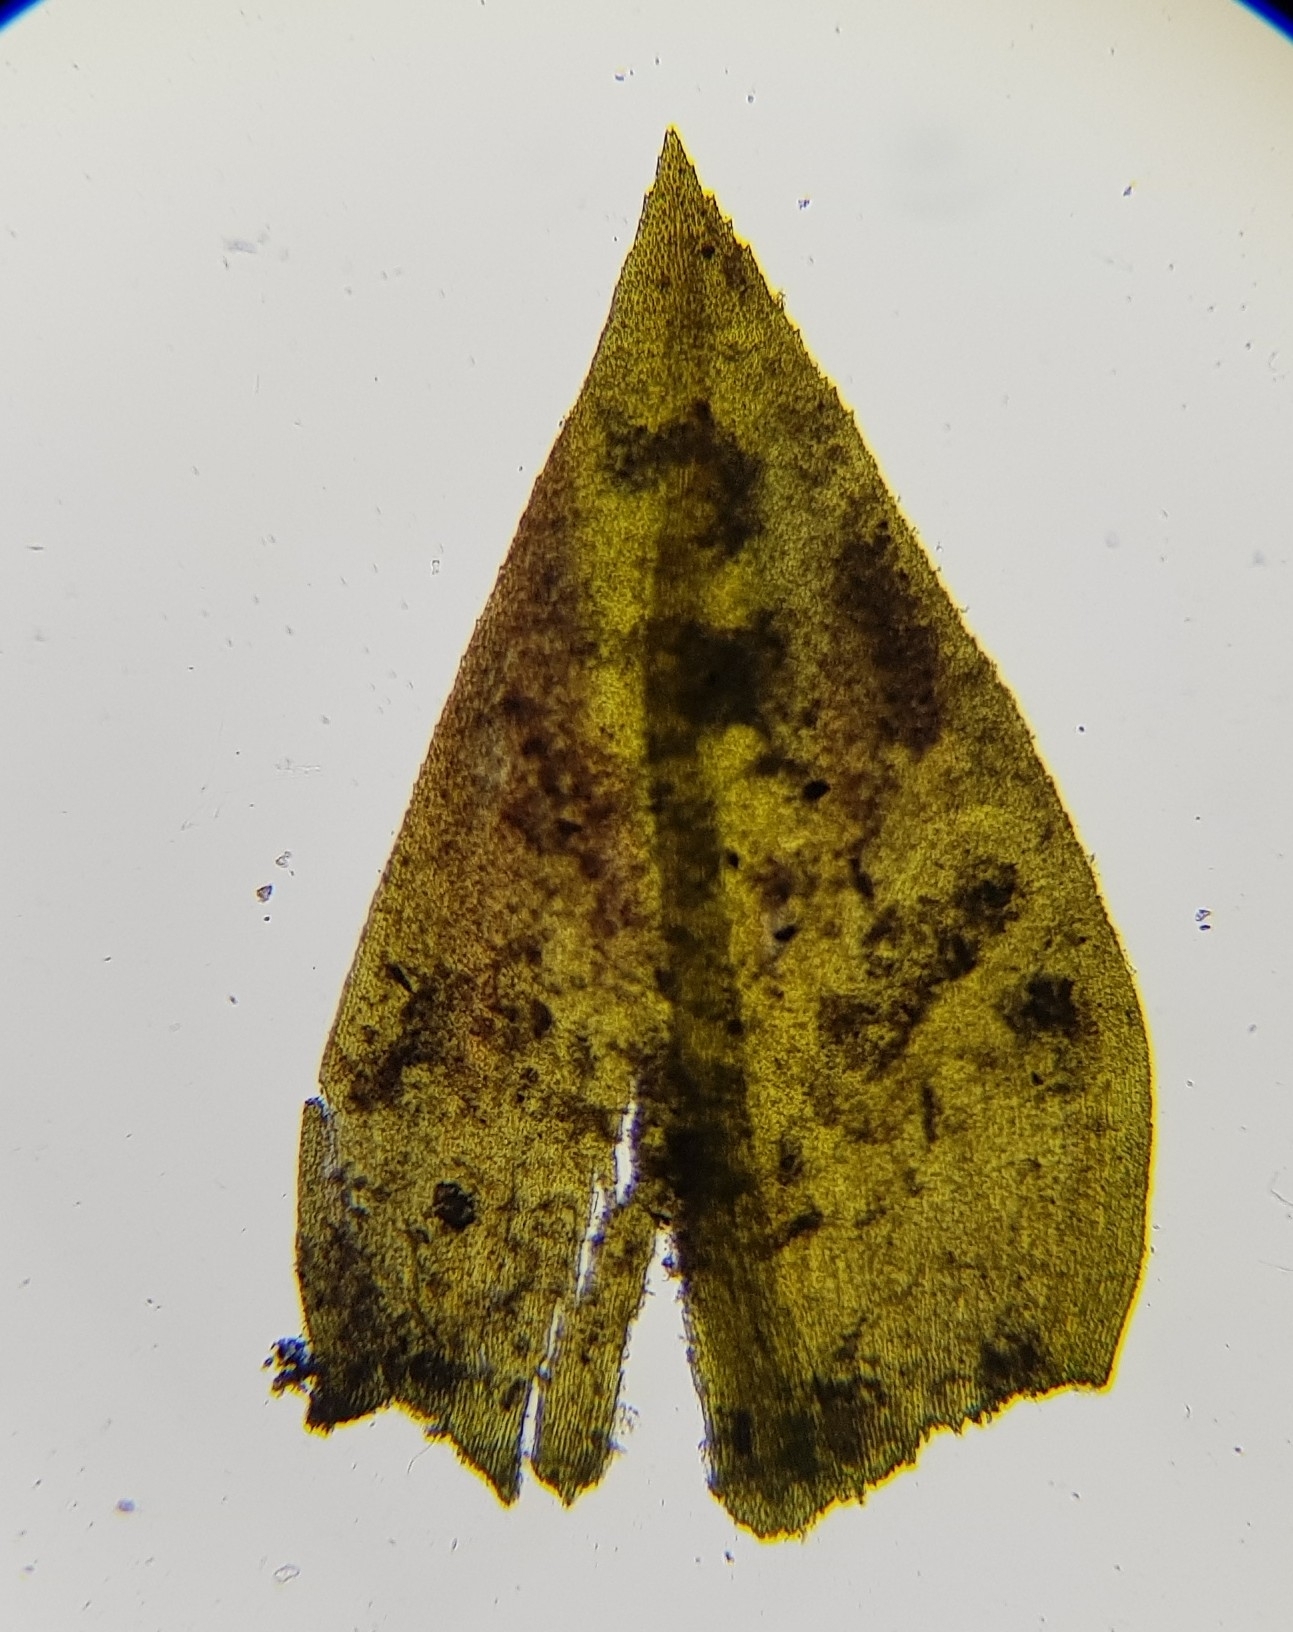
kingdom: Plantae
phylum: Bryophyta
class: Bryopsida
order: Hypnales
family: Neckeraceae
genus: Thamnobryum
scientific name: Thamnobryum alopecurum
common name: Fox-tail feather-moss
